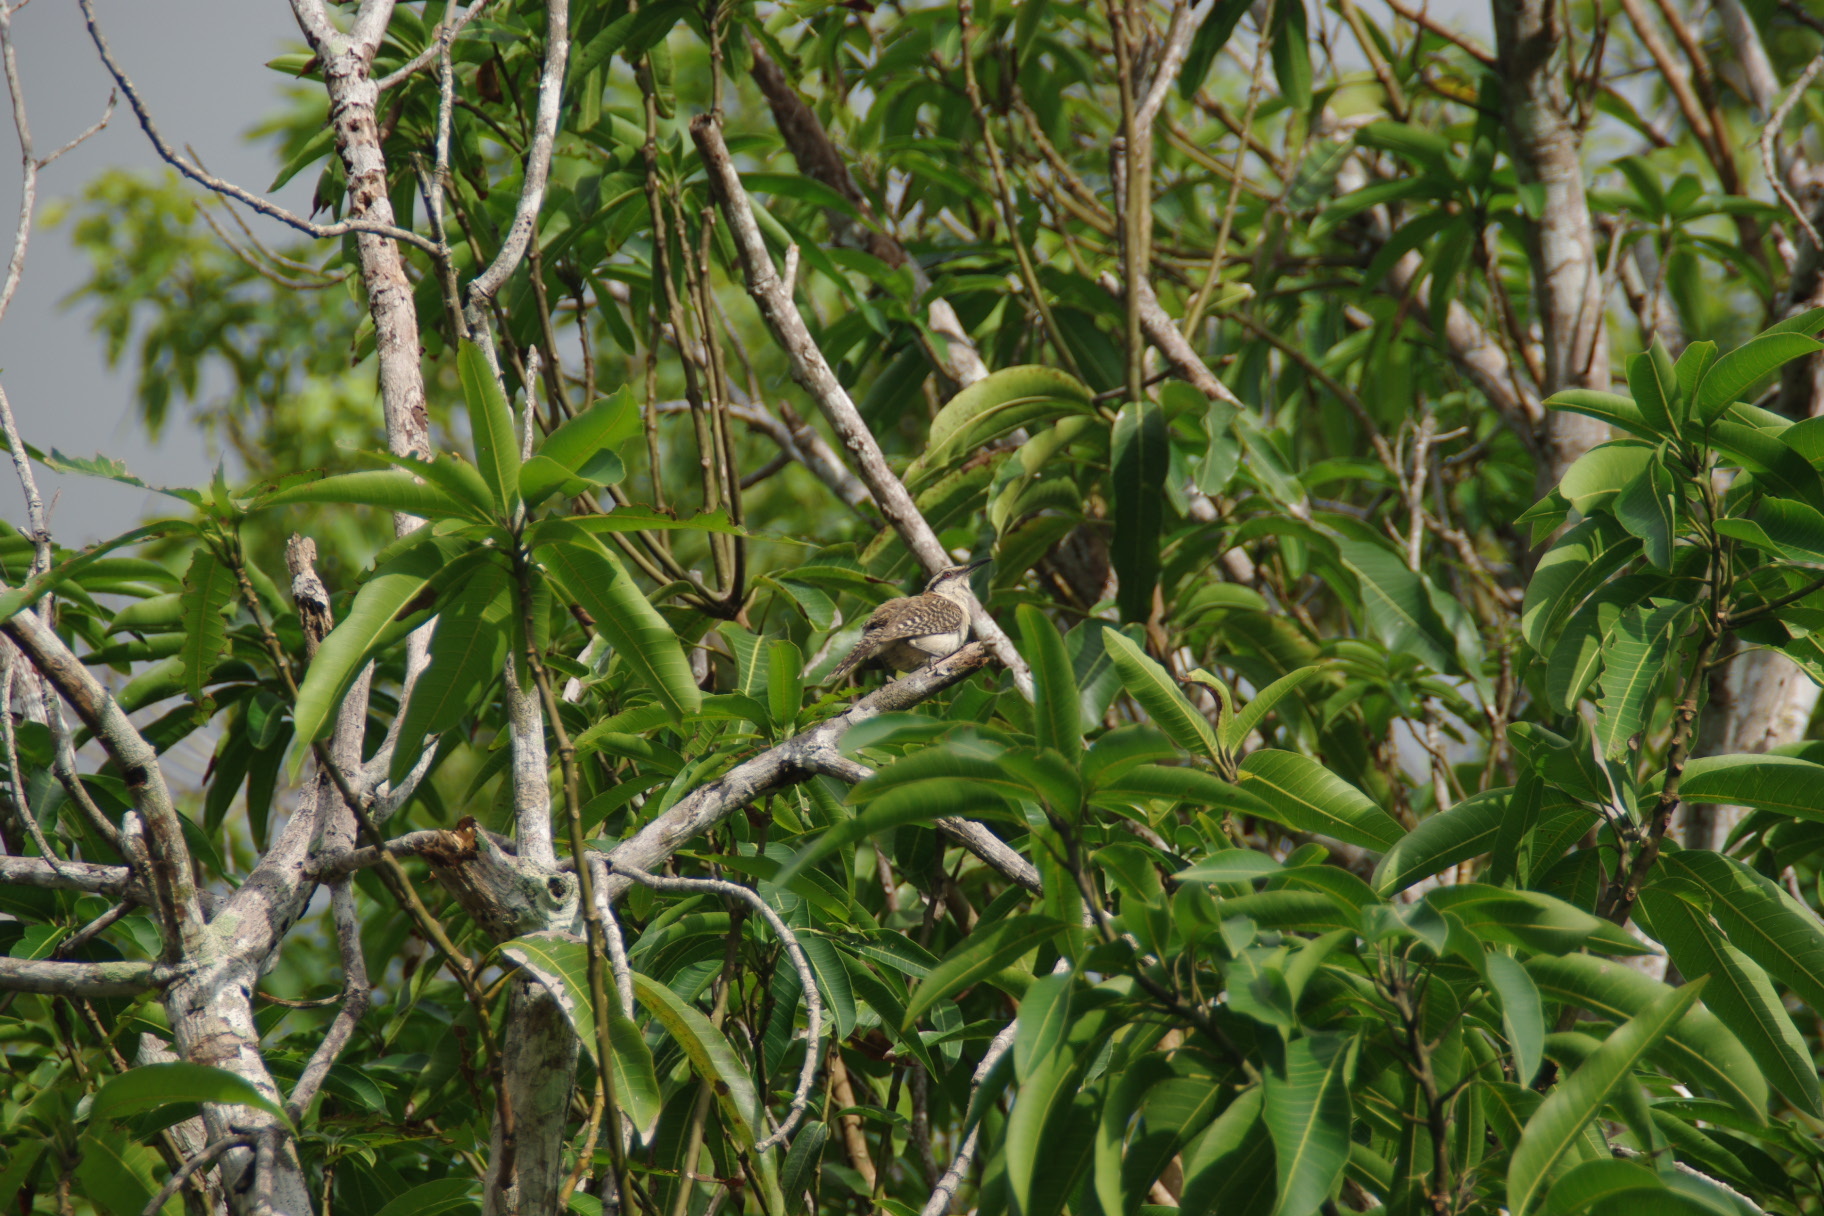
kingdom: Animalia
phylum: Chordata
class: Aves
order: Passeriformes
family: Troglodytidae
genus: Campylorhynchus
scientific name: Campylorhynchus rufinucha
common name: Rufous-naped wren
